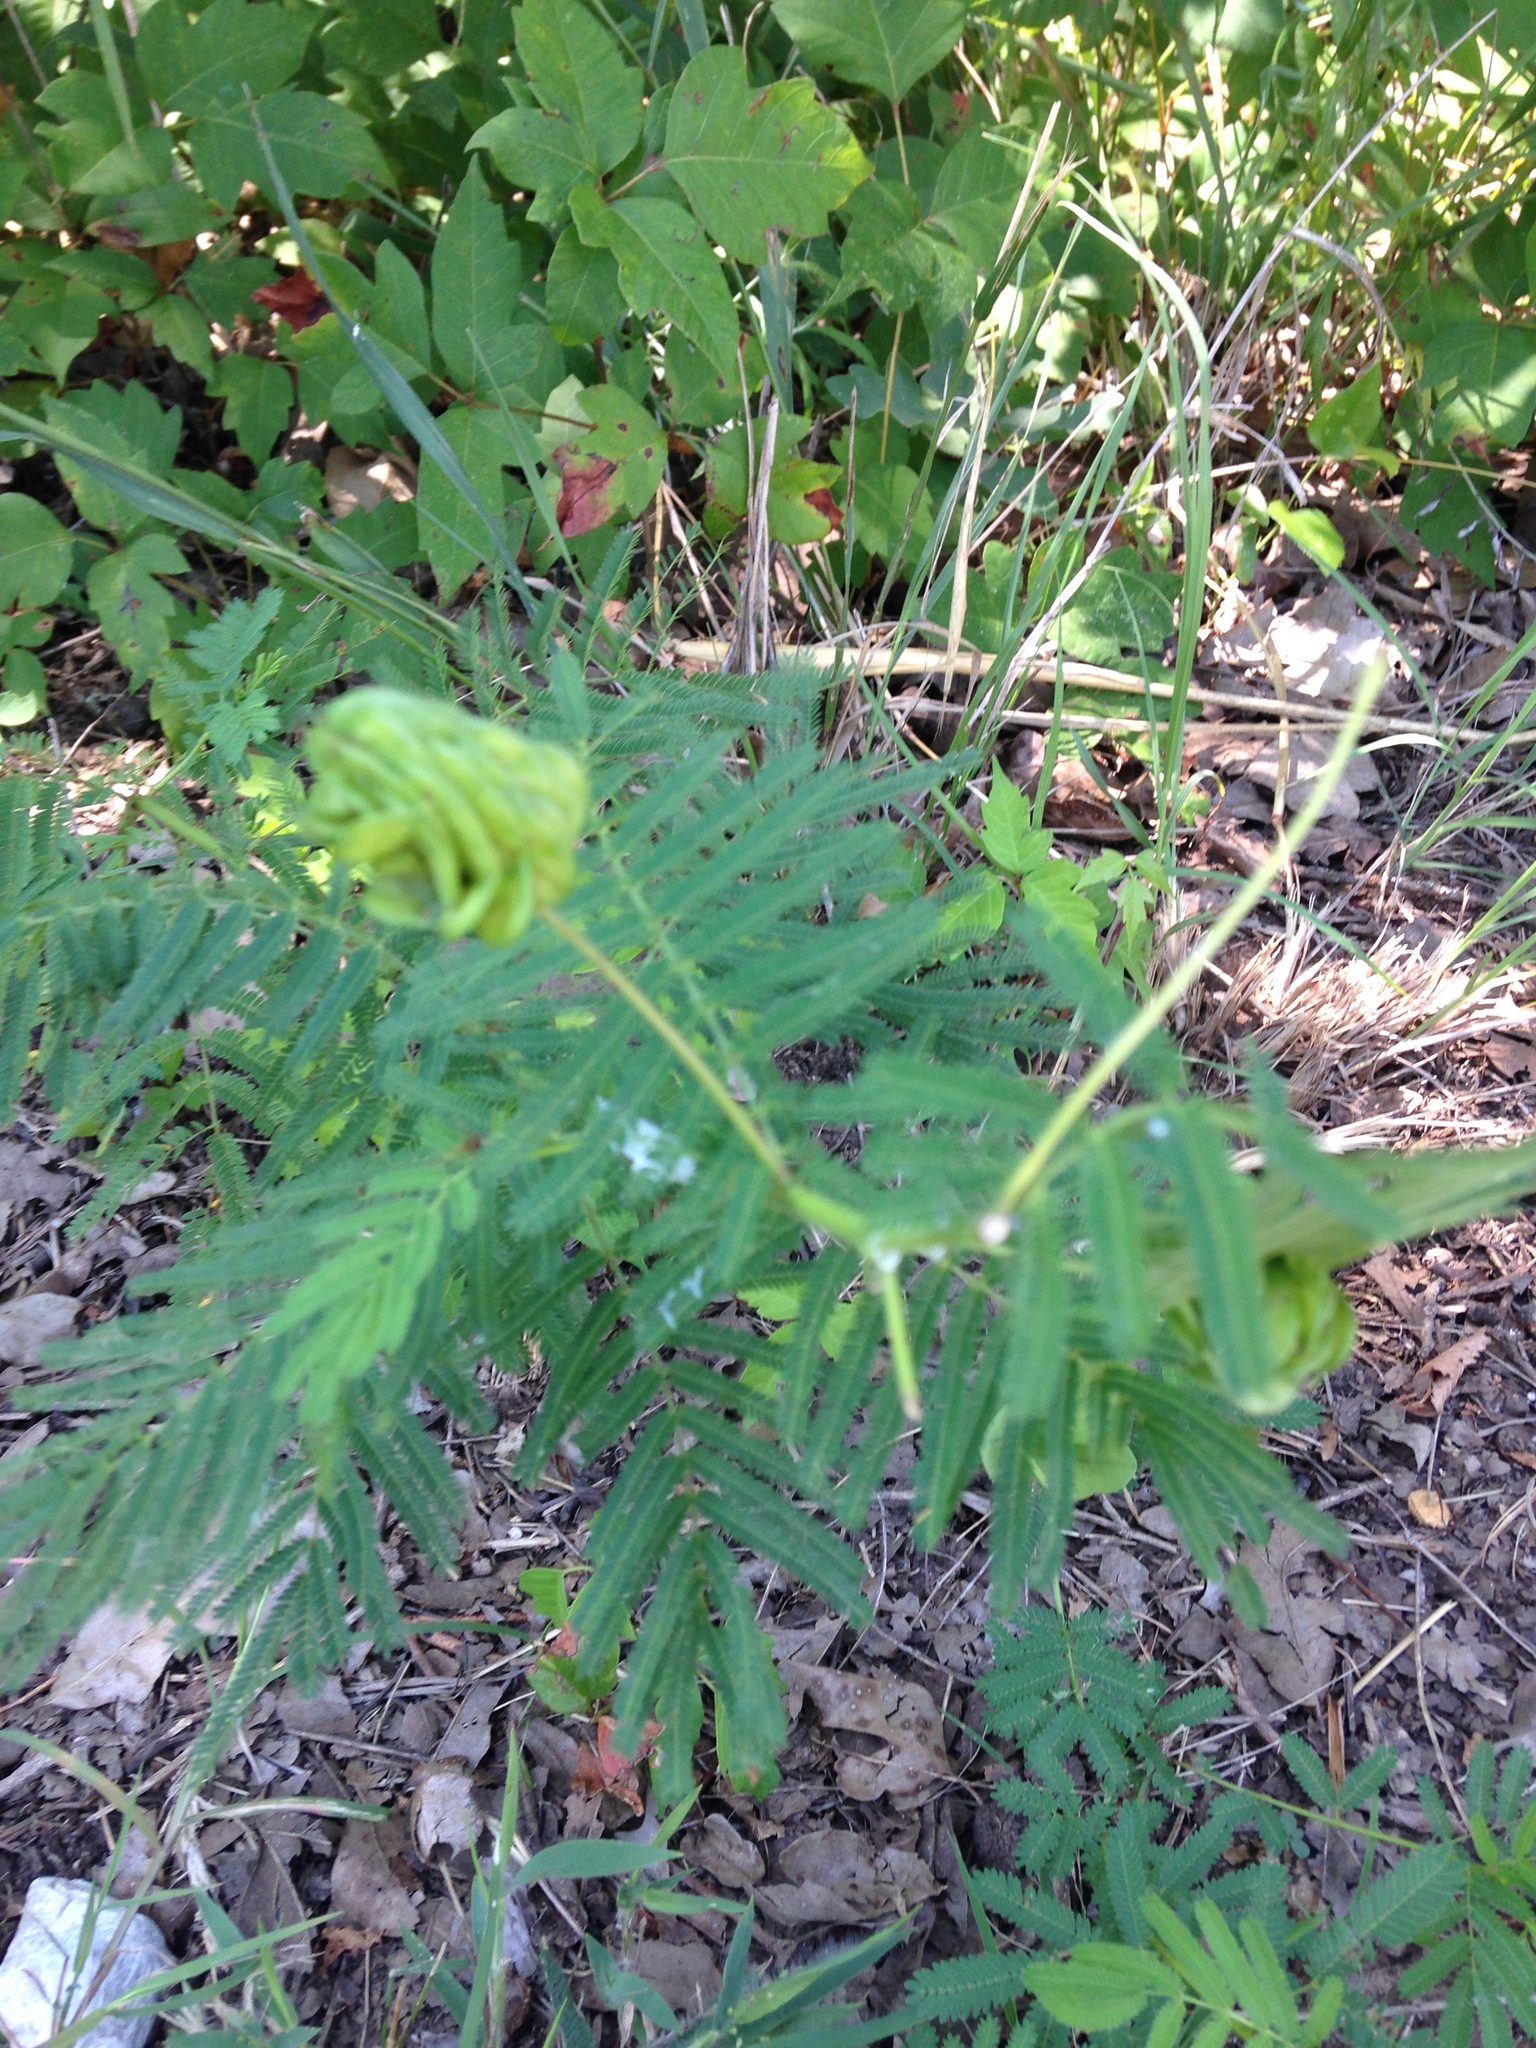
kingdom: Plantae
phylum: Tracheophyta
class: Magnoliopsida
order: Fabales
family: Fabaceae
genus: Desmanthus
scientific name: Desmanthus illinoensis
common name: Illinois bundle-flower
